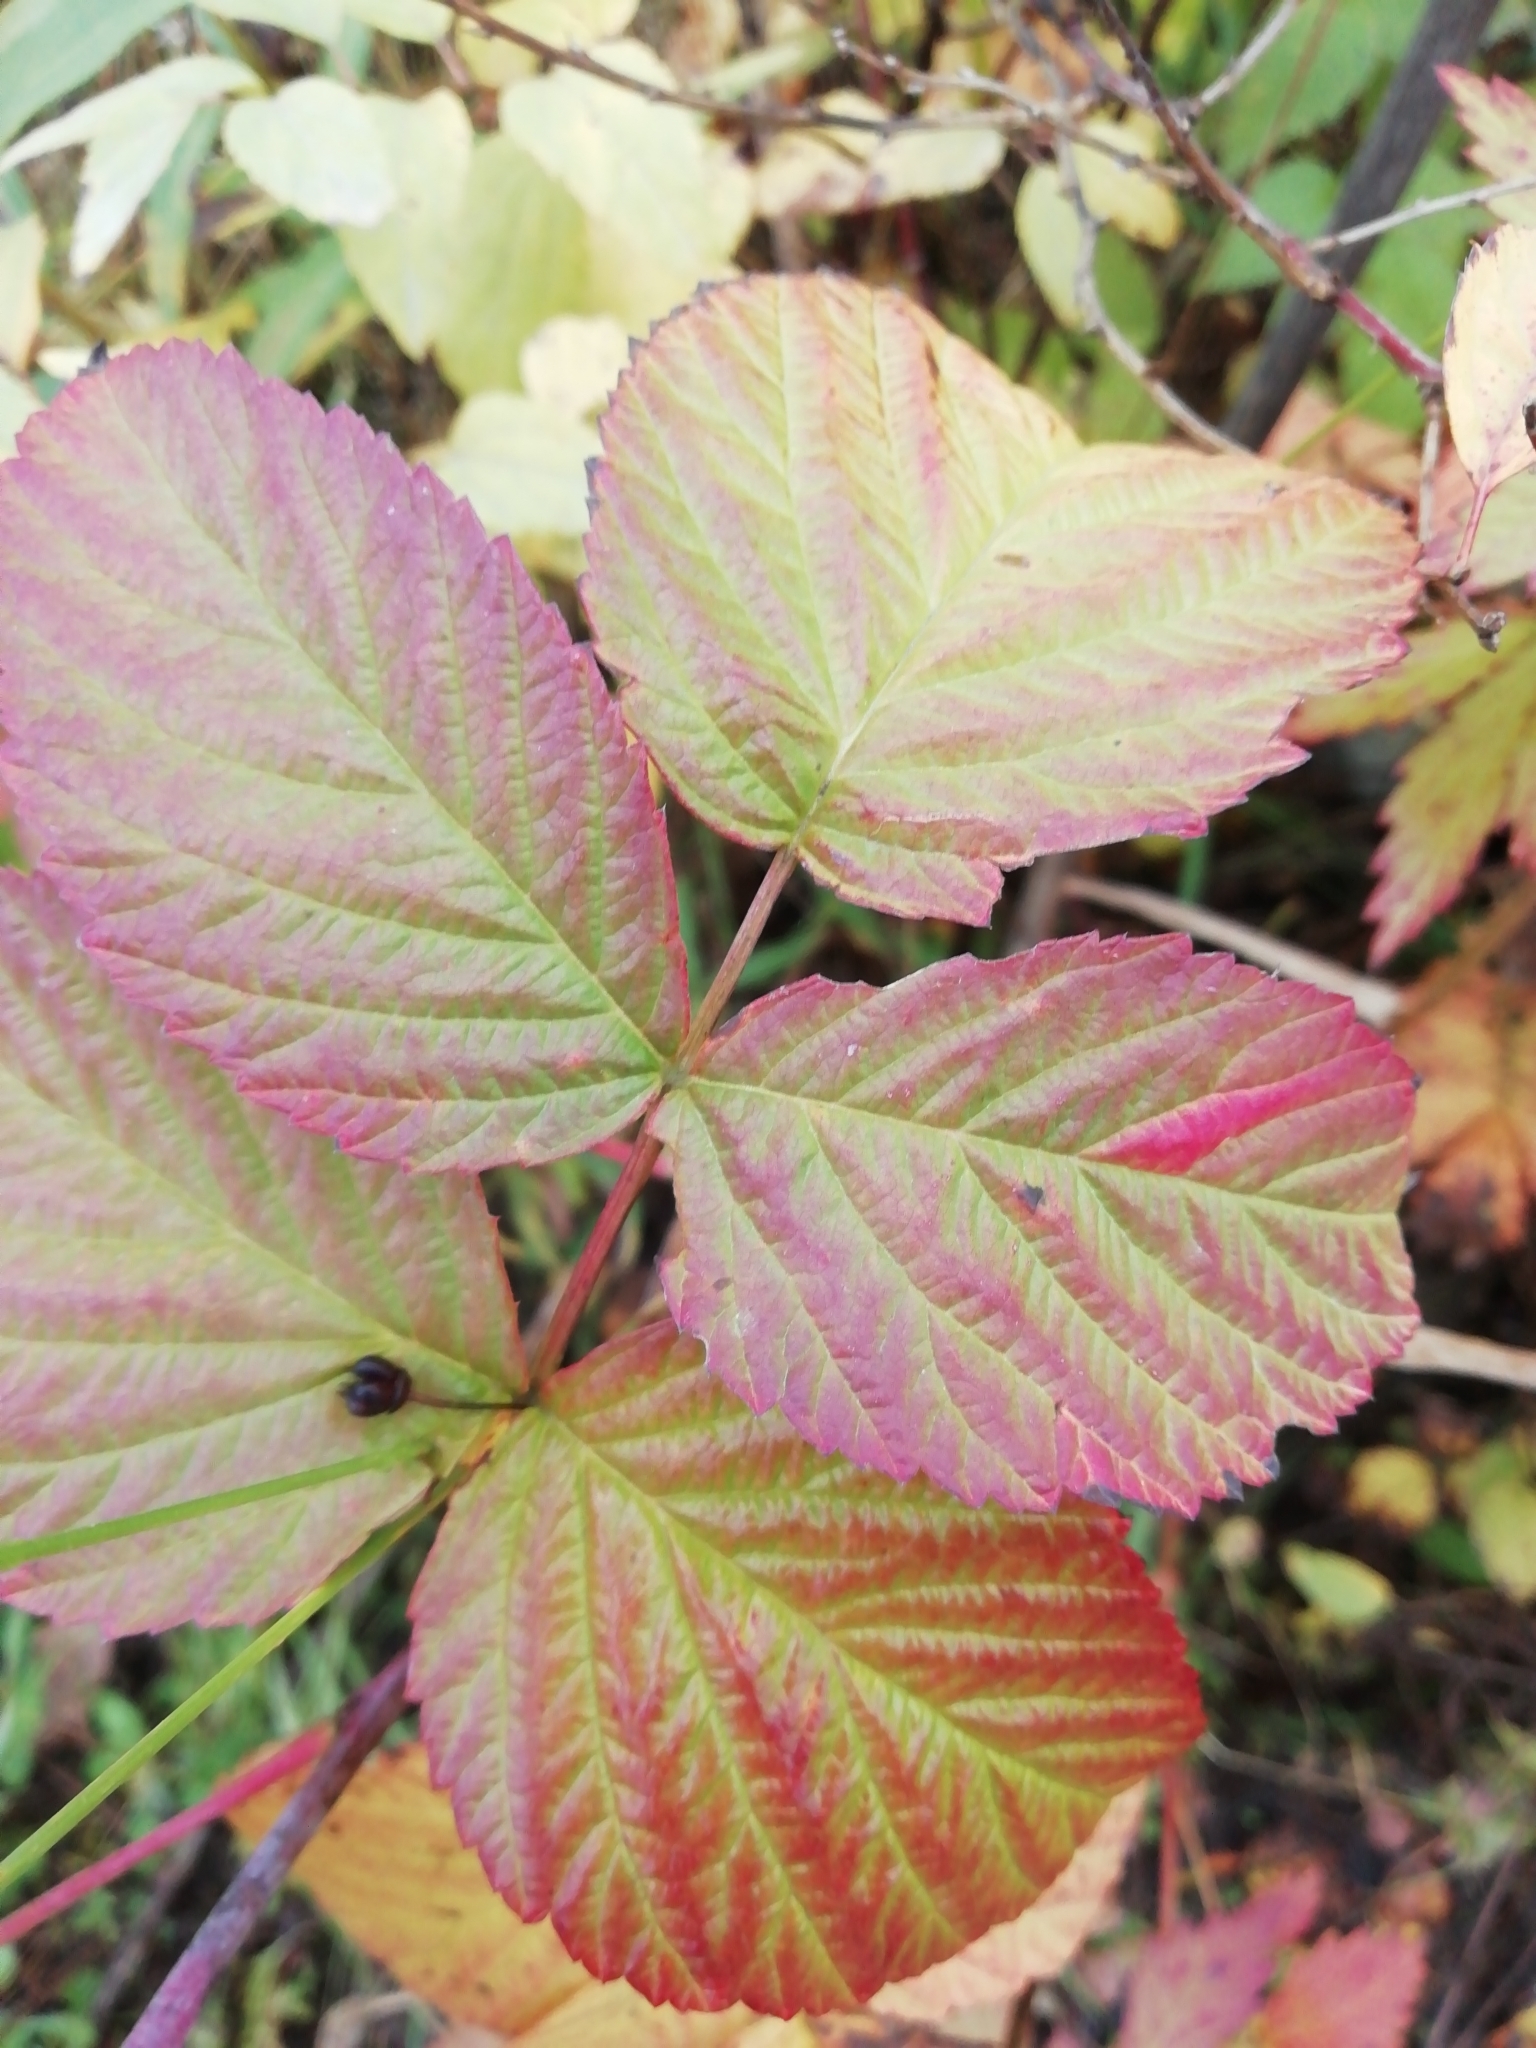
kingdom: Plantae
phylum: Tracheophyta
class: Magnoliopsida
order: Rosales
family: Rosaceae
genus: Rubus
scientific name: Rubus idaeus
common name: Raspberry
